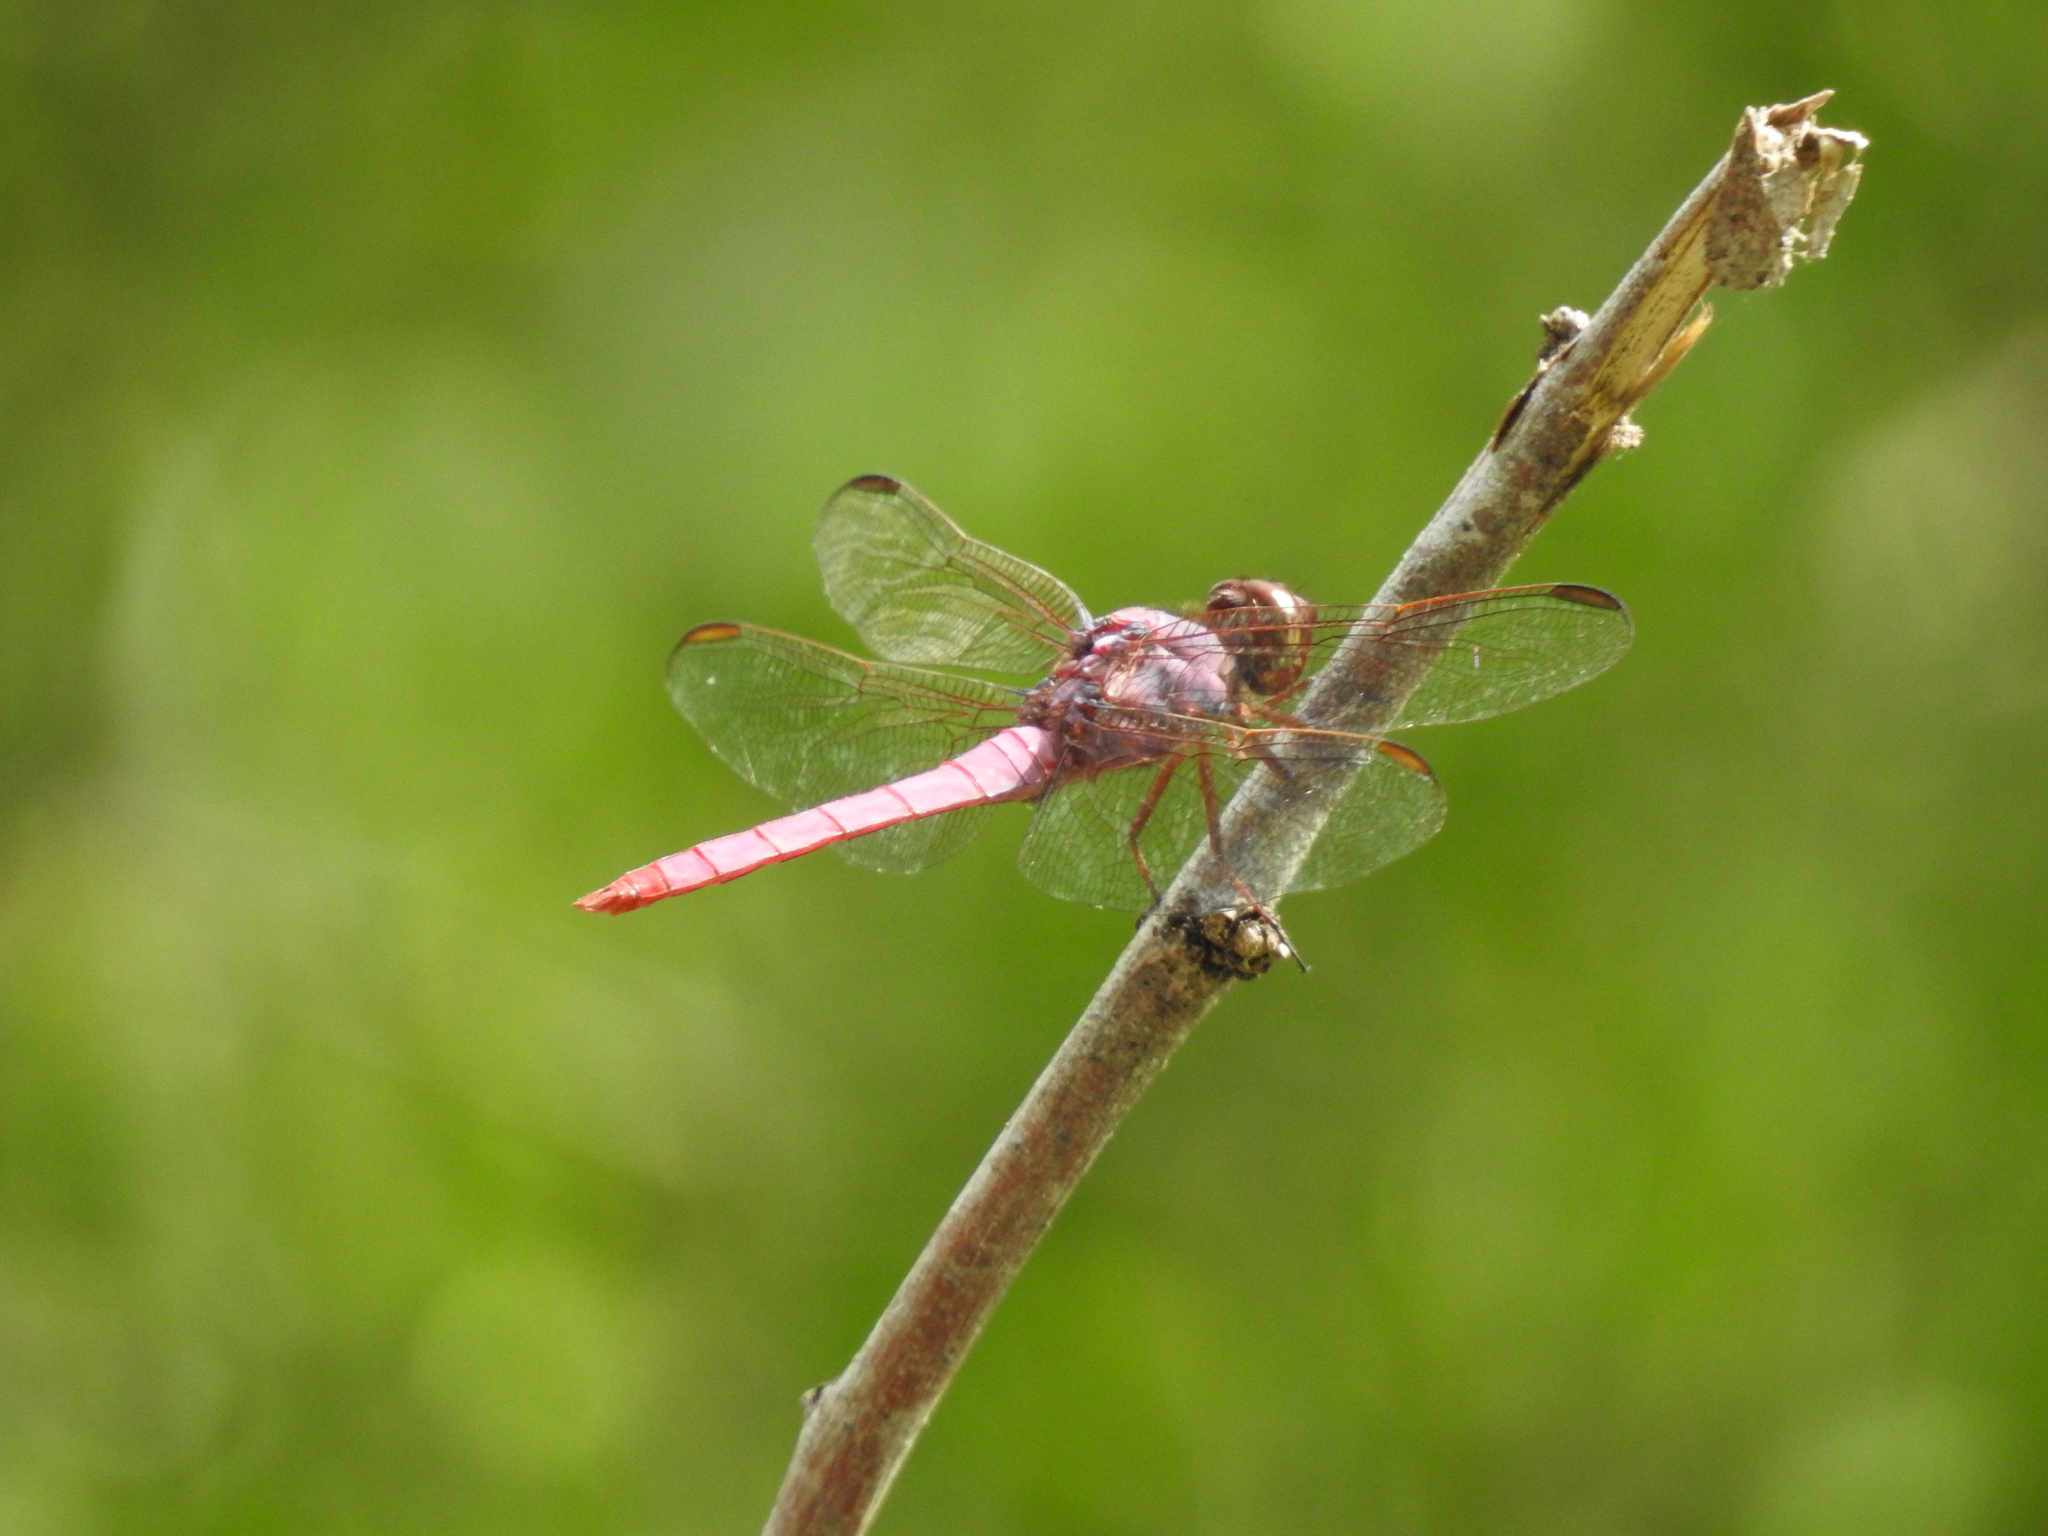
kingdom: Animalia
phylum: Arthropoda
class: Insecta
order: Odonata
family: Libellulidae
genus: Orthemis
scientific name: Orthemis ferruginea
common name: Roseate skimmer
